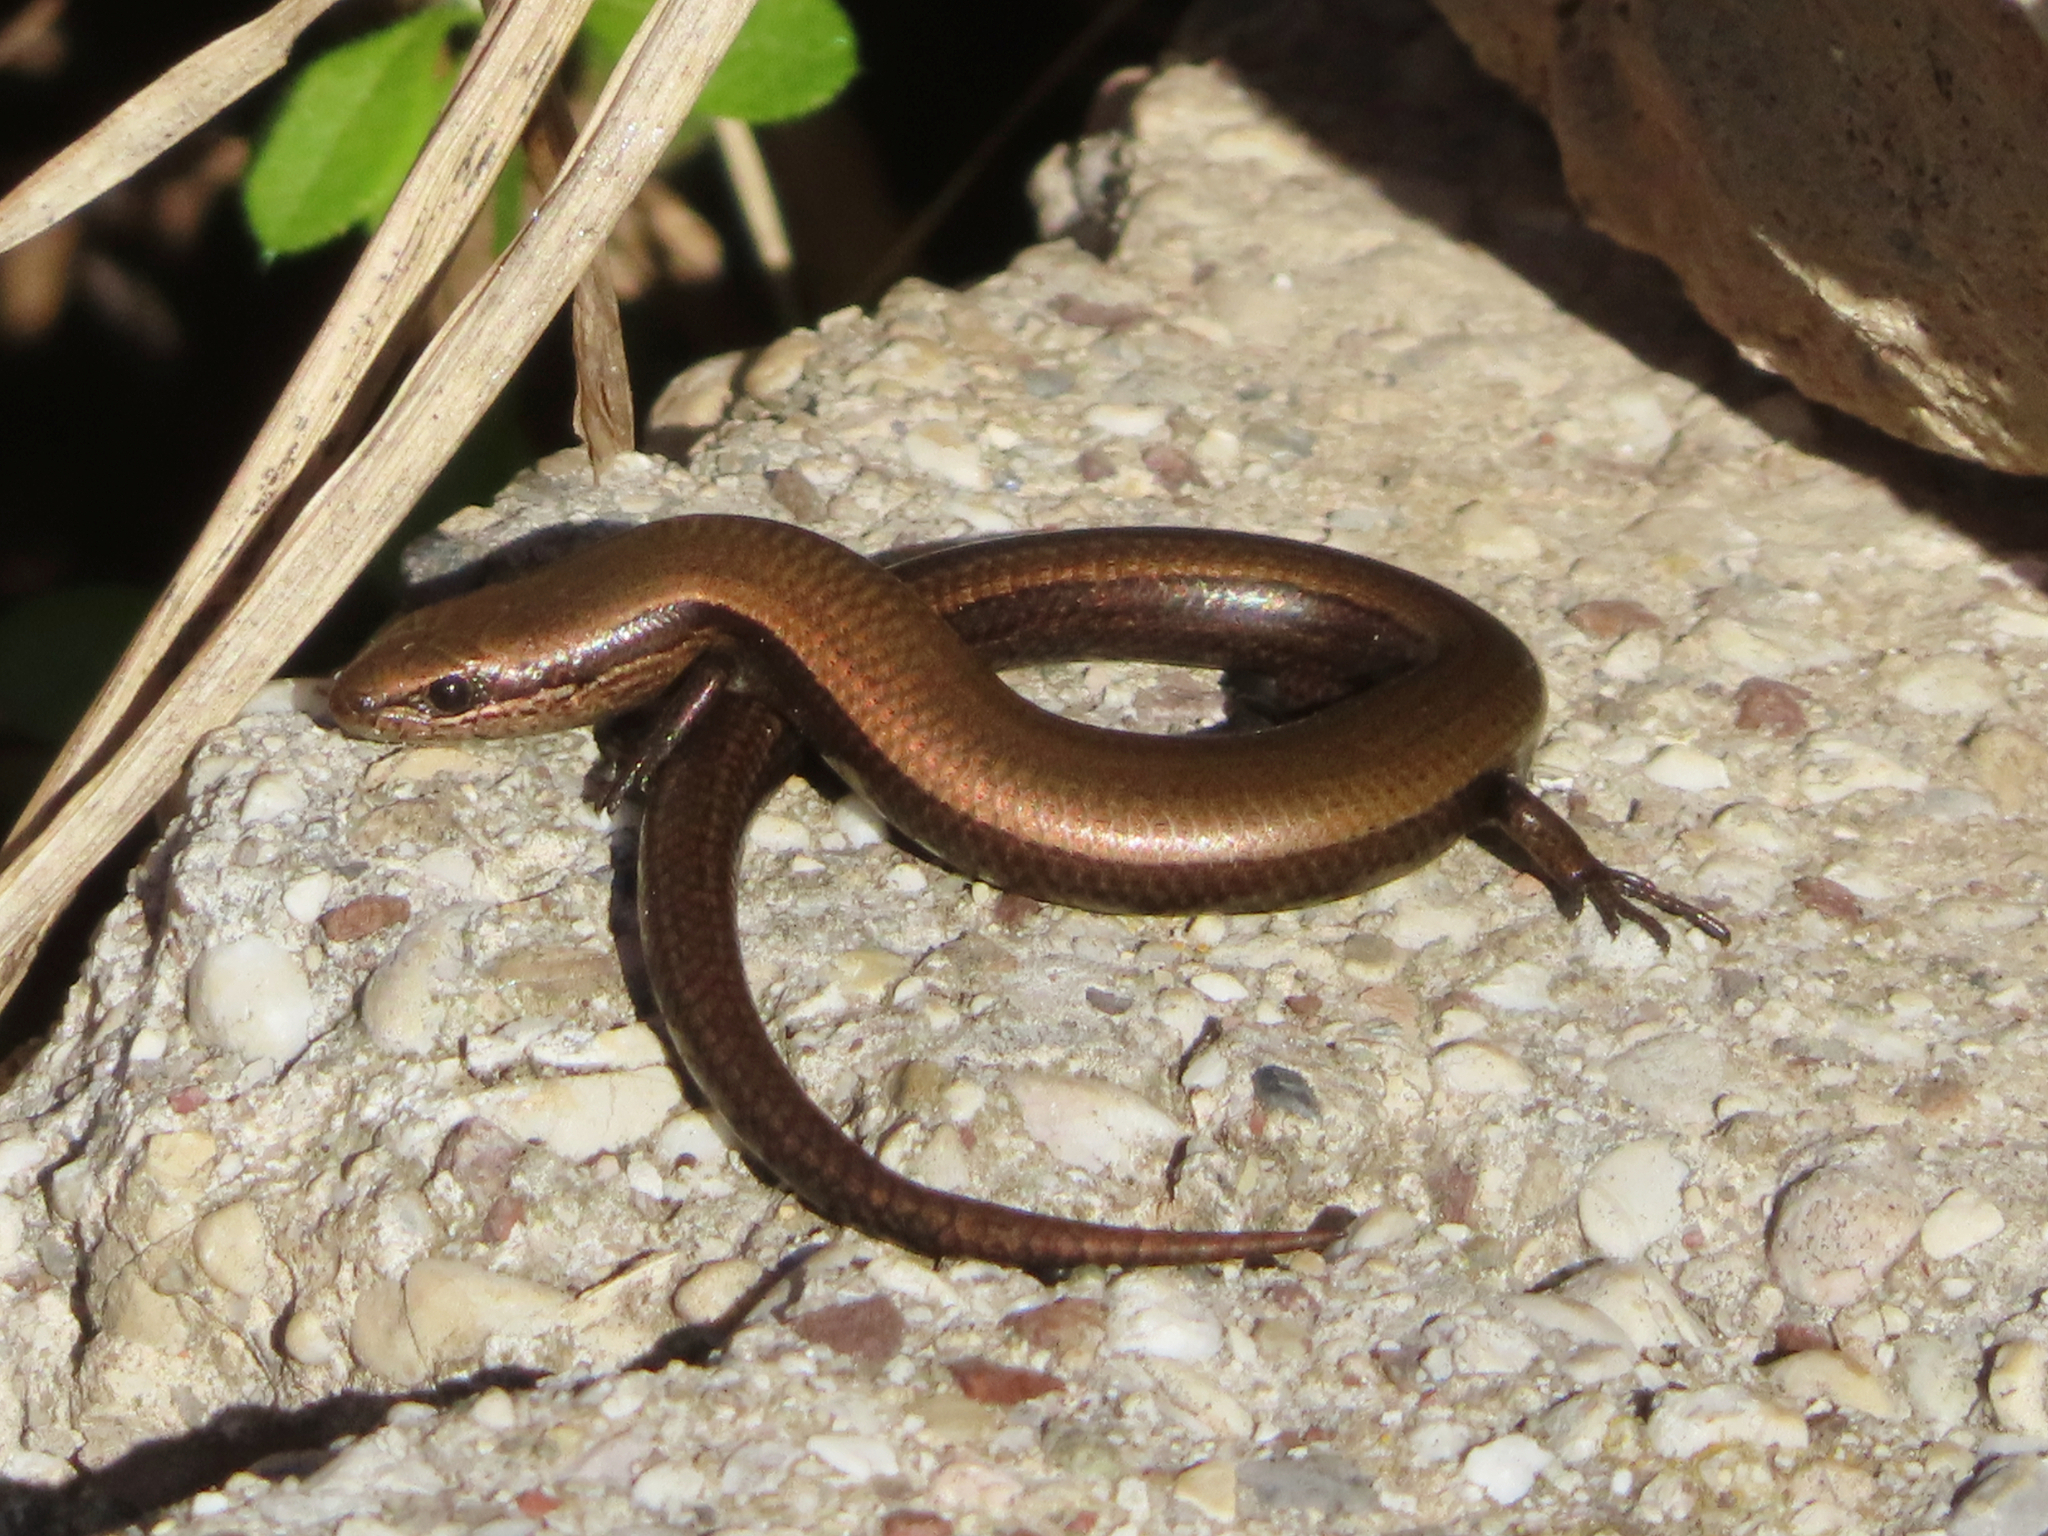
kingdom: Animalia
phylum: Chordata
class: Squamata
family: Scincidae
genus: Ablepharus
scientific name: Ablepharus kitaibelii
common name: Juniper skink
